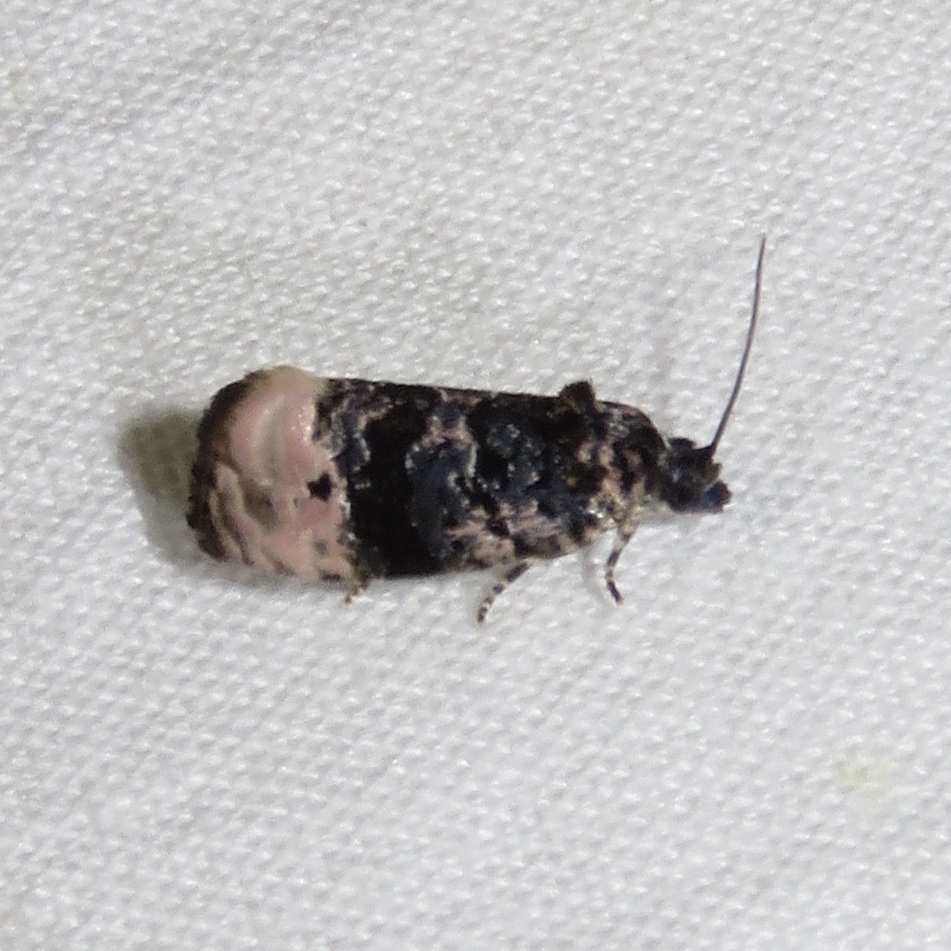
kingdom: Animalia
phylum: Arthropoda
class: Insecta
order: Lepidoptera
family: Tortricidae
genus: Hedya
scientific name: Hedya separatana
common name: Pink-washed leafroller moth
